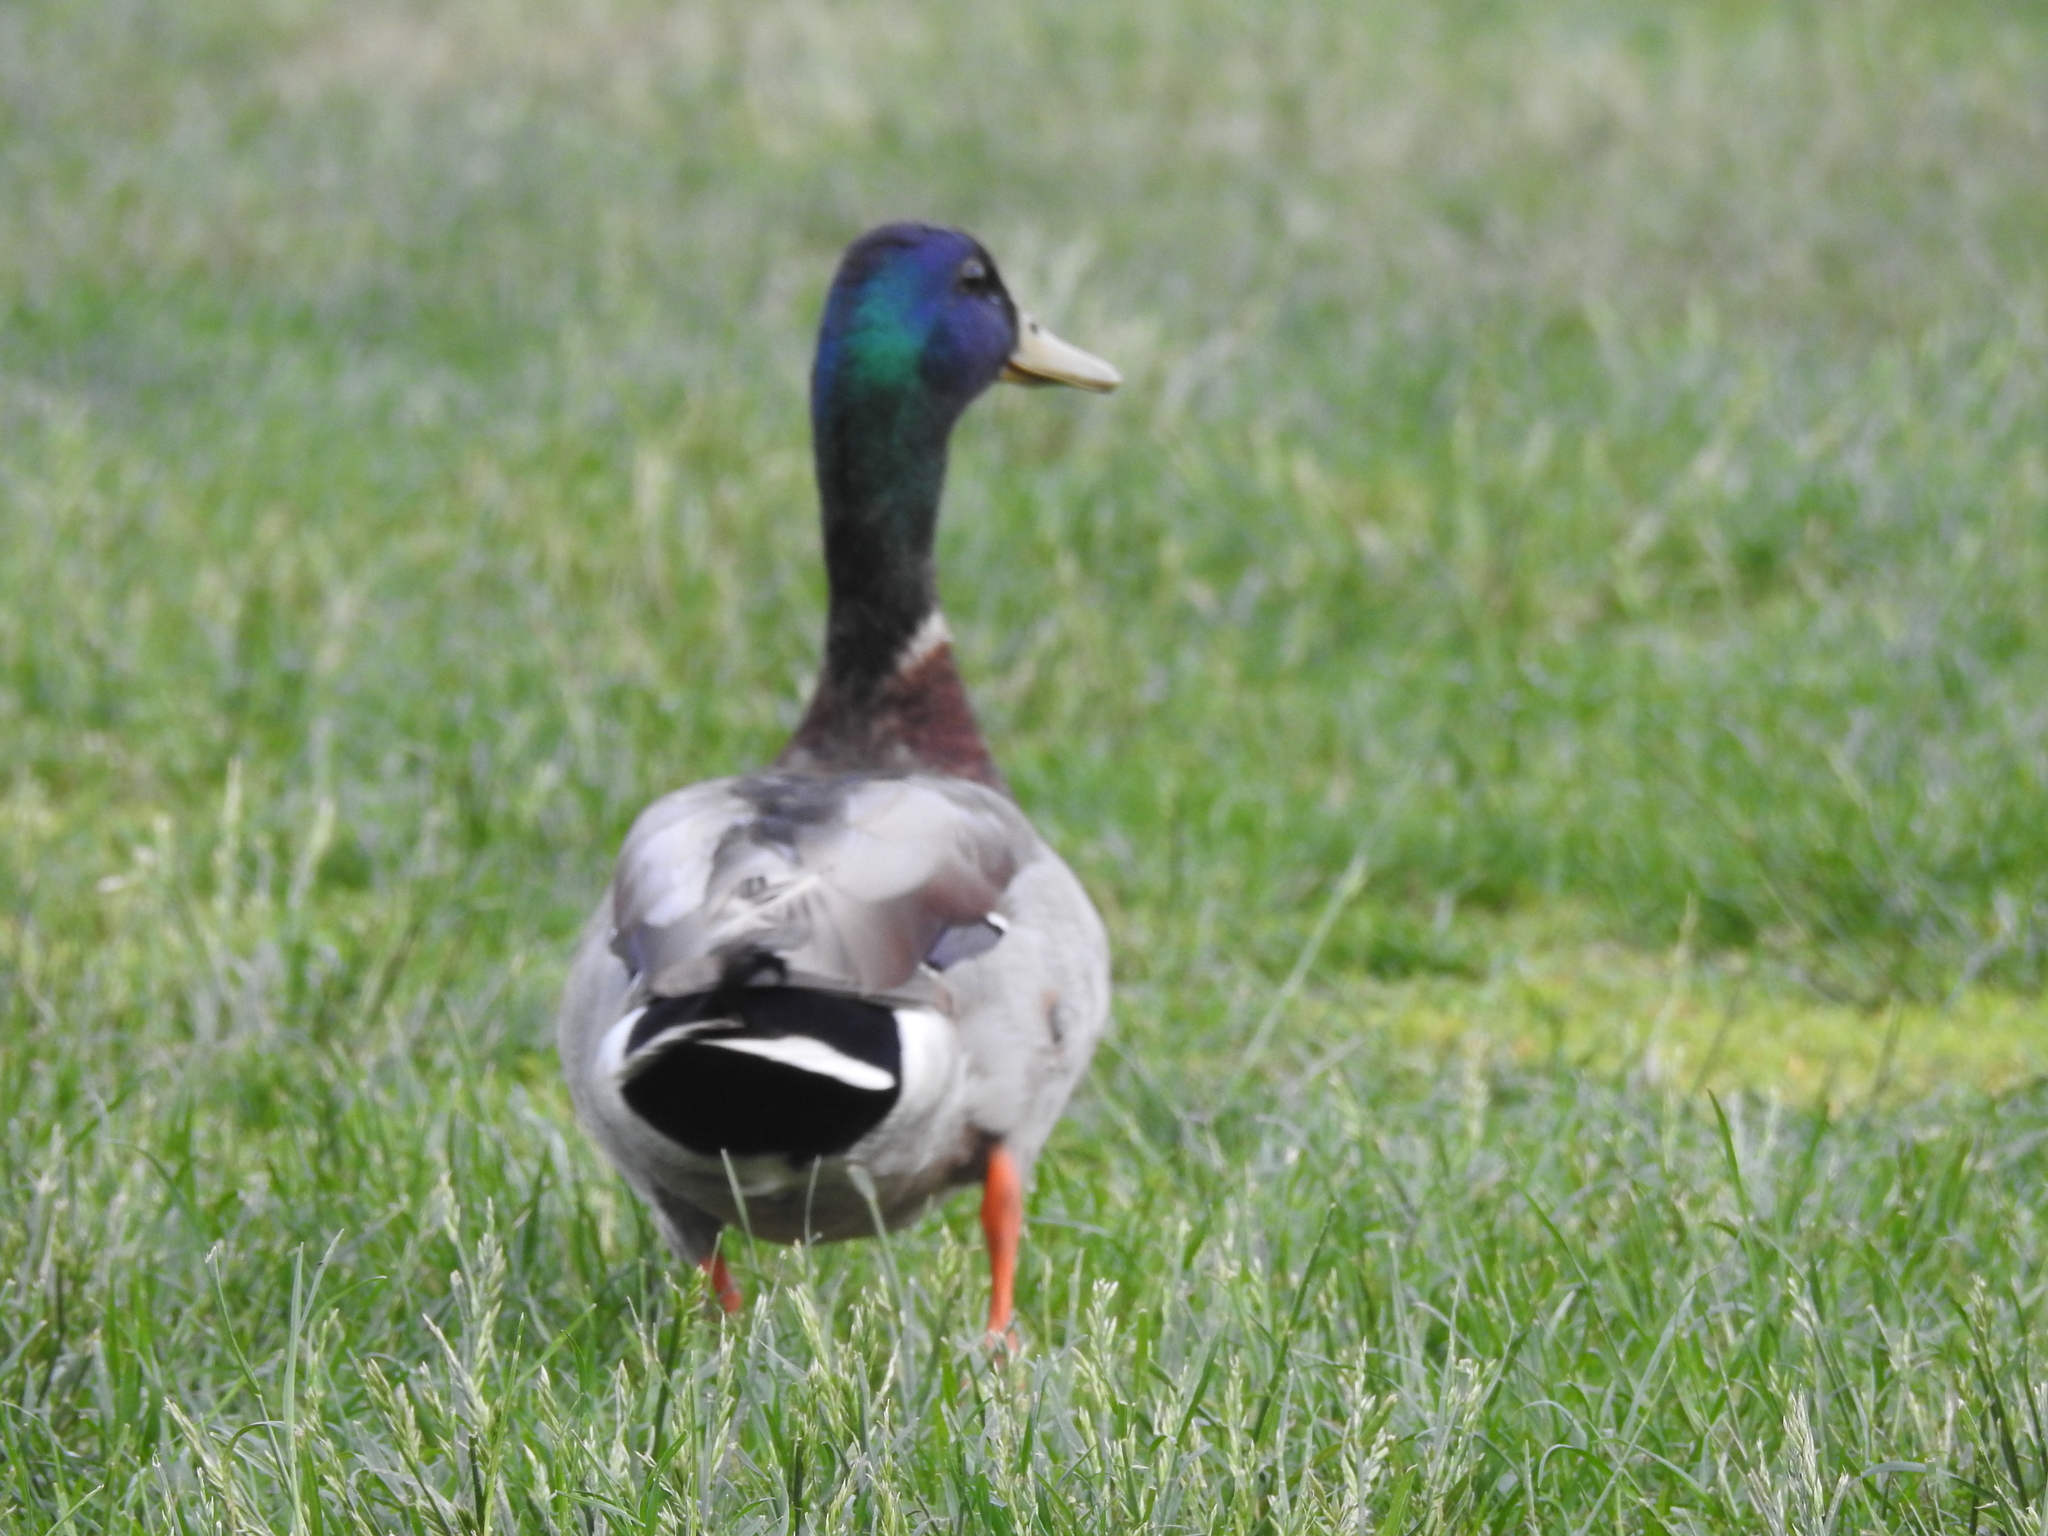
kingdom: Animalia
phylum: Chordata
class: Aves
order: Anseriformes
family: Anatidae
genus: Anas
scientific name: Anas platyrhynchos
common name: Mallard
